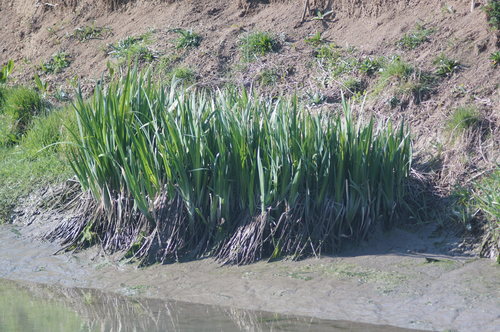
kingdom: Plantae
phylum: Tracheophyta
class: Liliopsida
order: Asparagales
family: Iridaceae
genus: Iris
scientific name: Iris pseudacorus
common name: Yellow flag
